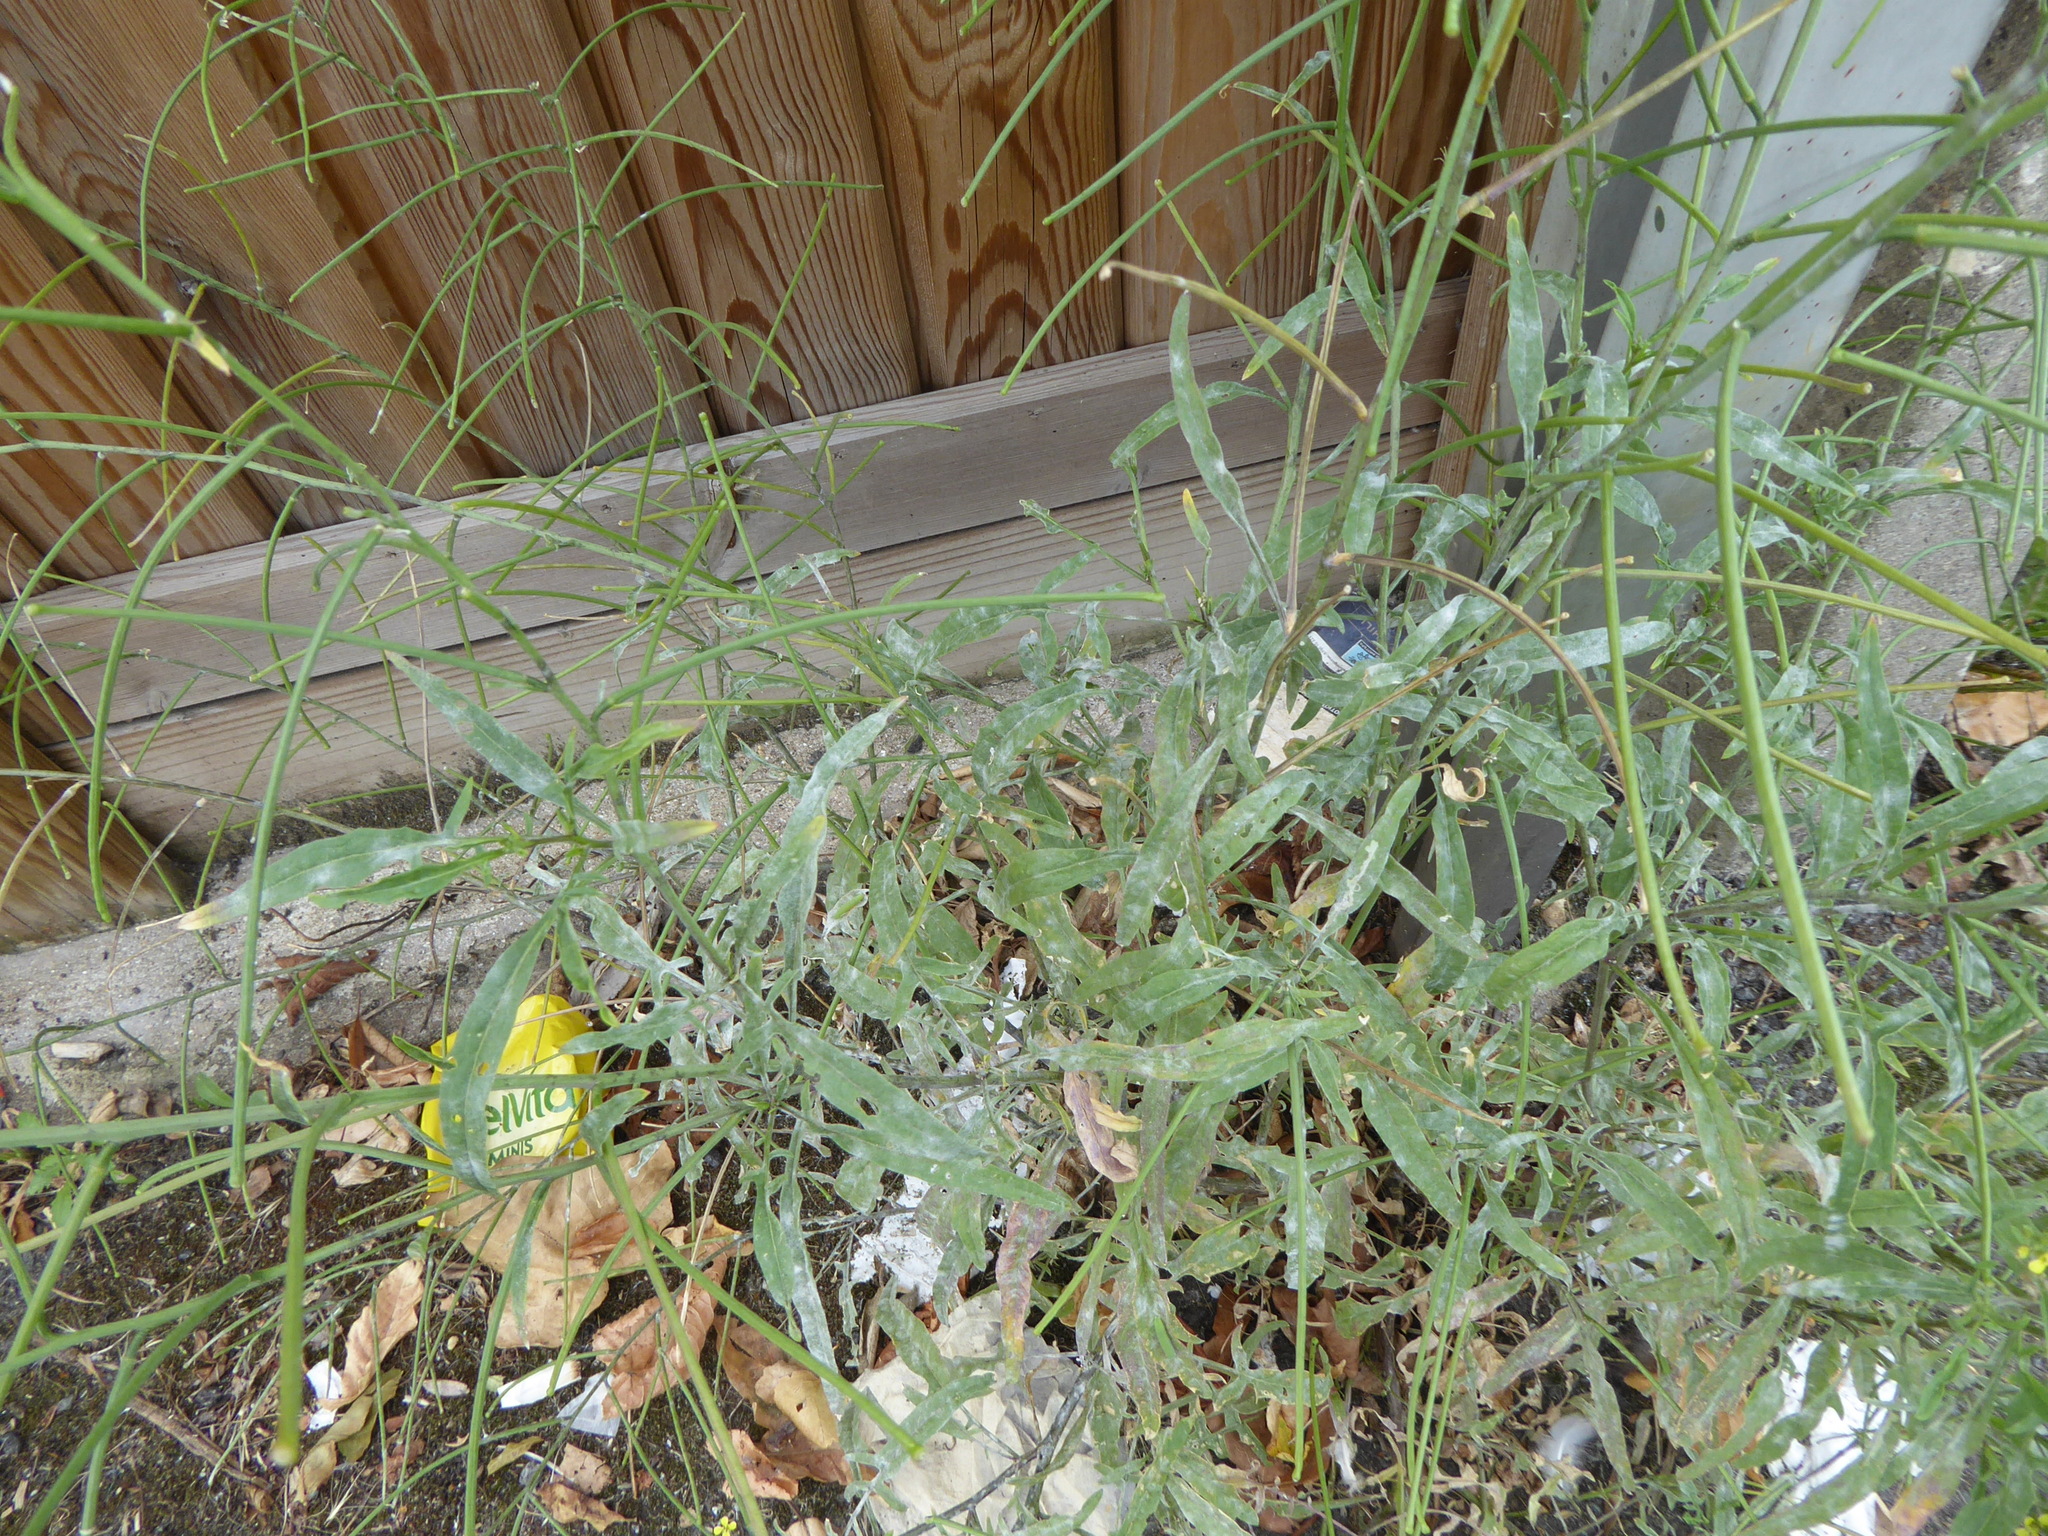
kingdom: Plantae
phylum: Tracheophyta
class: Magnoliopsida
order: Brassicales
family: Brassicaceae
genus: Sisymbrium
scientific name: Sisymbrium orientale
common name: Eastern rocket
